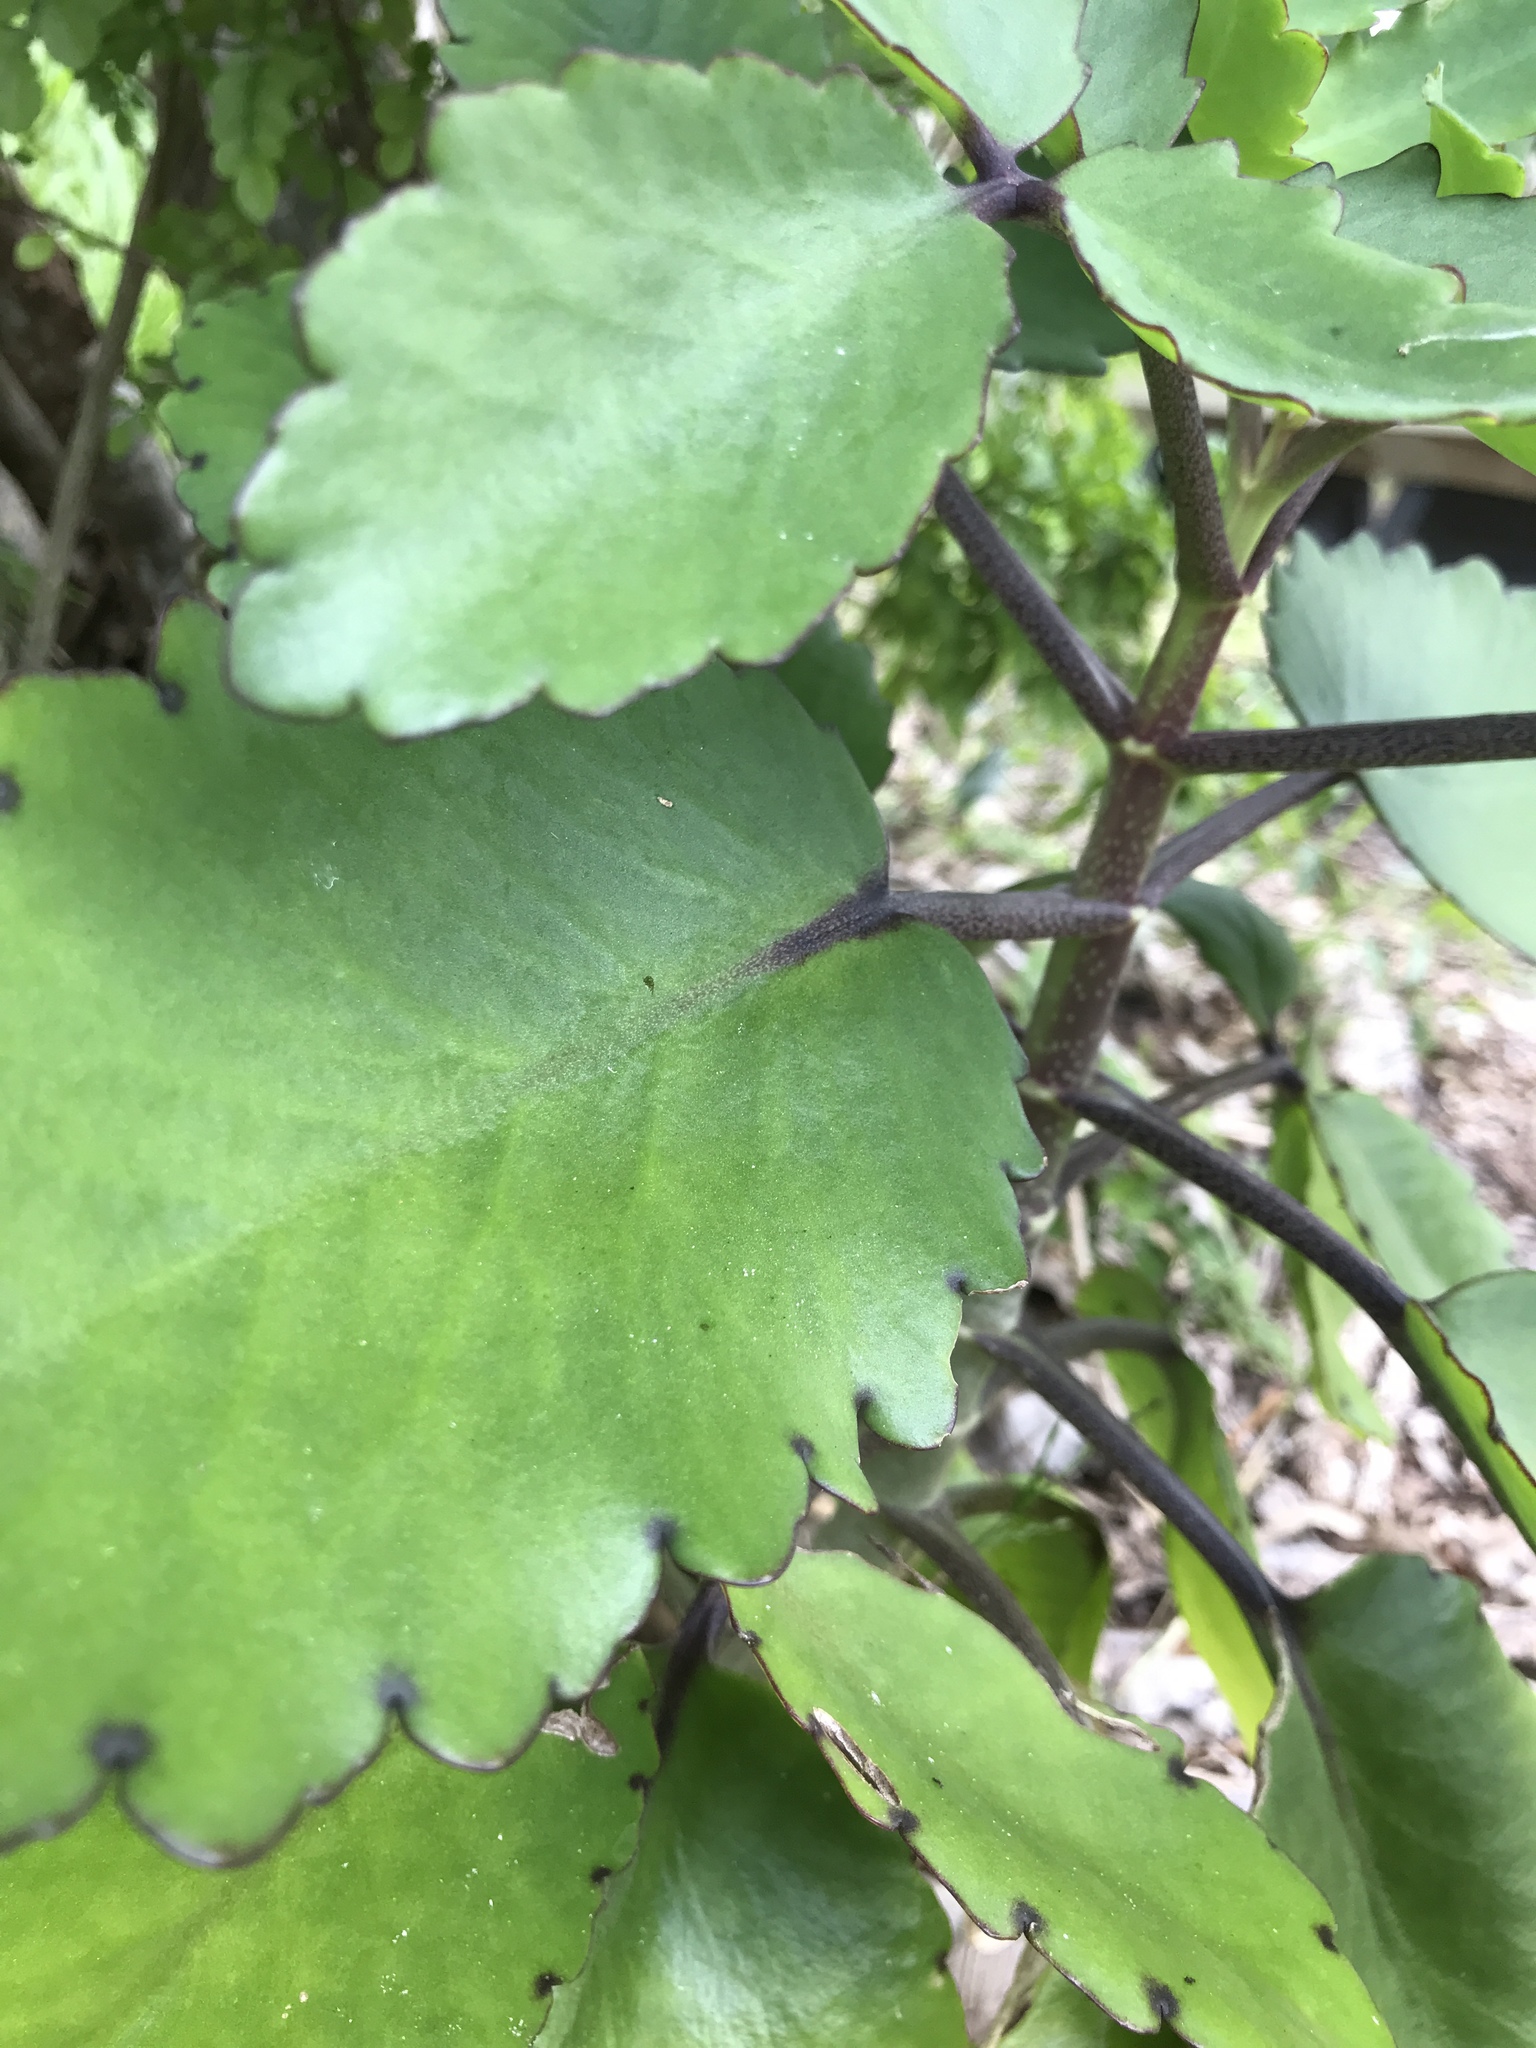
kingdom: Plantae
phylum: Tracheophyta
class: Magnoliopsida
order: Saxifragales
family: Crassulaceae
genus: Kalanchoe
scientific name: Kalanchoe pinnata
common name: Cathedral bells
